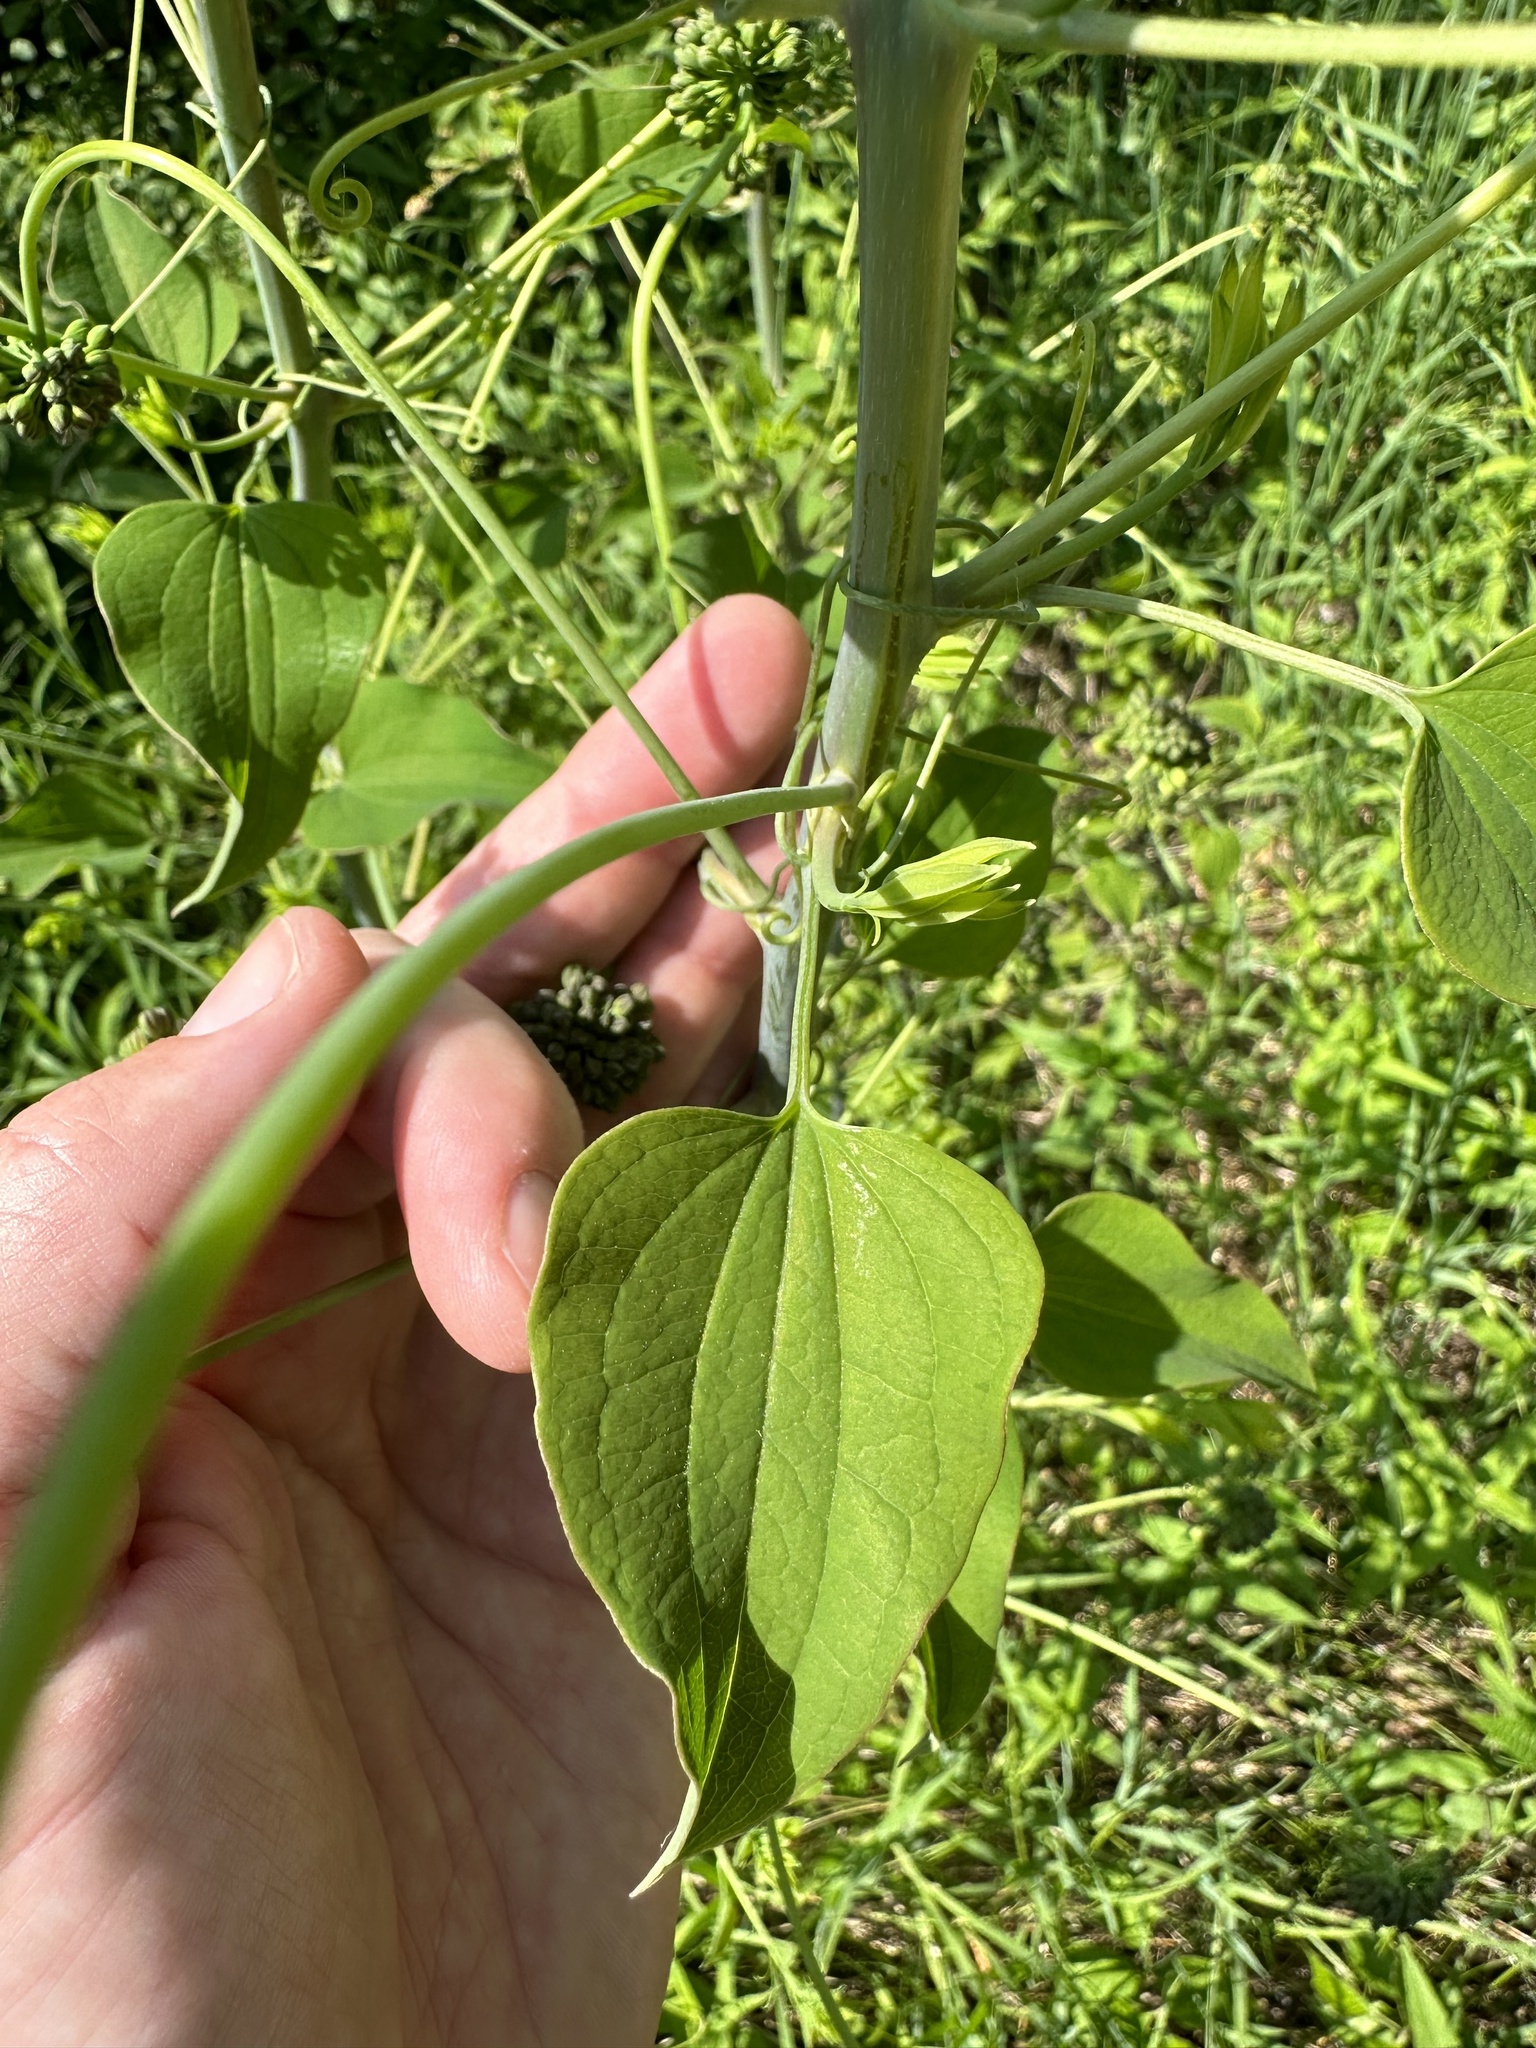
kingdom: Plantae
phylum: Tracheophyta
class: Liliopsida
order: Liliales
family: Smilacaceae
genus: Smilax
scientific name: Smilax herbacea
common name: Jacob's-ladder
